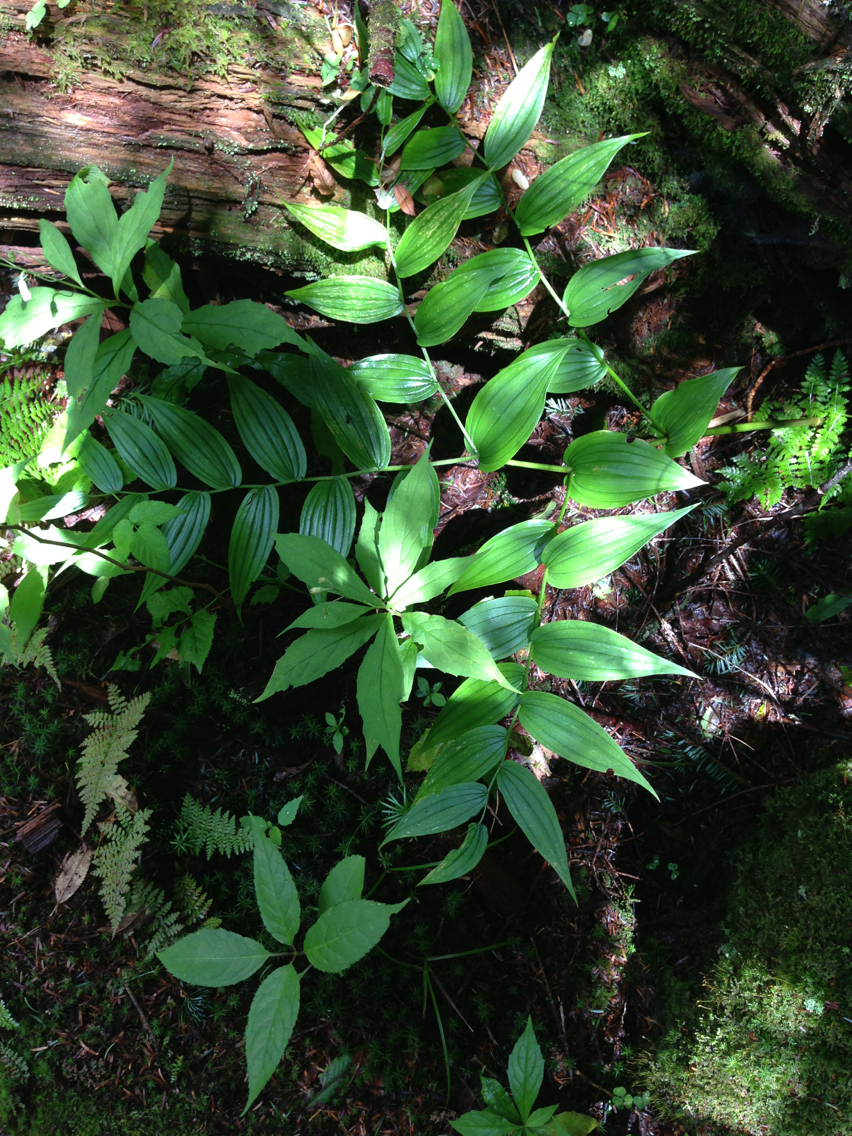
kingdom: Plantae
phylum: Tracheophyta
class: Liliopsida
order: Liliales
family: Liliaceae
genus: Streptopus
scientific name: Streptopus lanceolatus
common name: Rose mandarin
